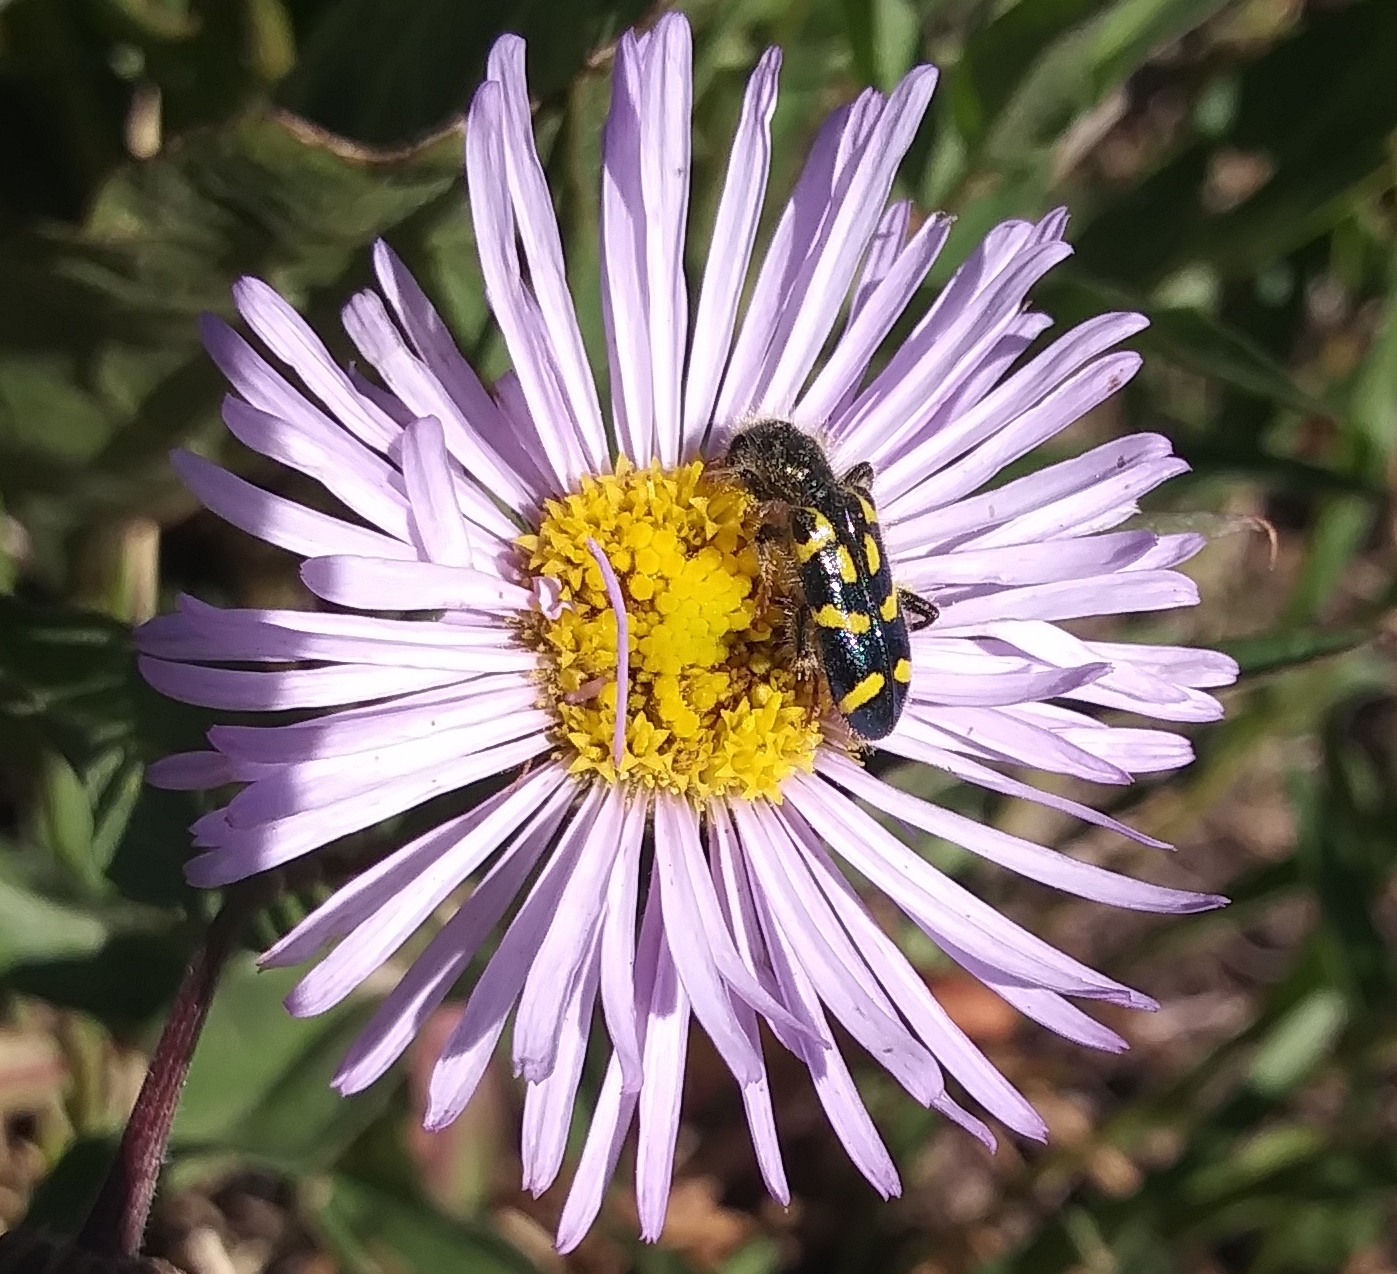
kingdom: Animalia
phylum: Arthropoda
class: Insecta
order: Coleoptera
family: Cleridae
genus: Trichodes
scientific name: Trichodes ornatus
